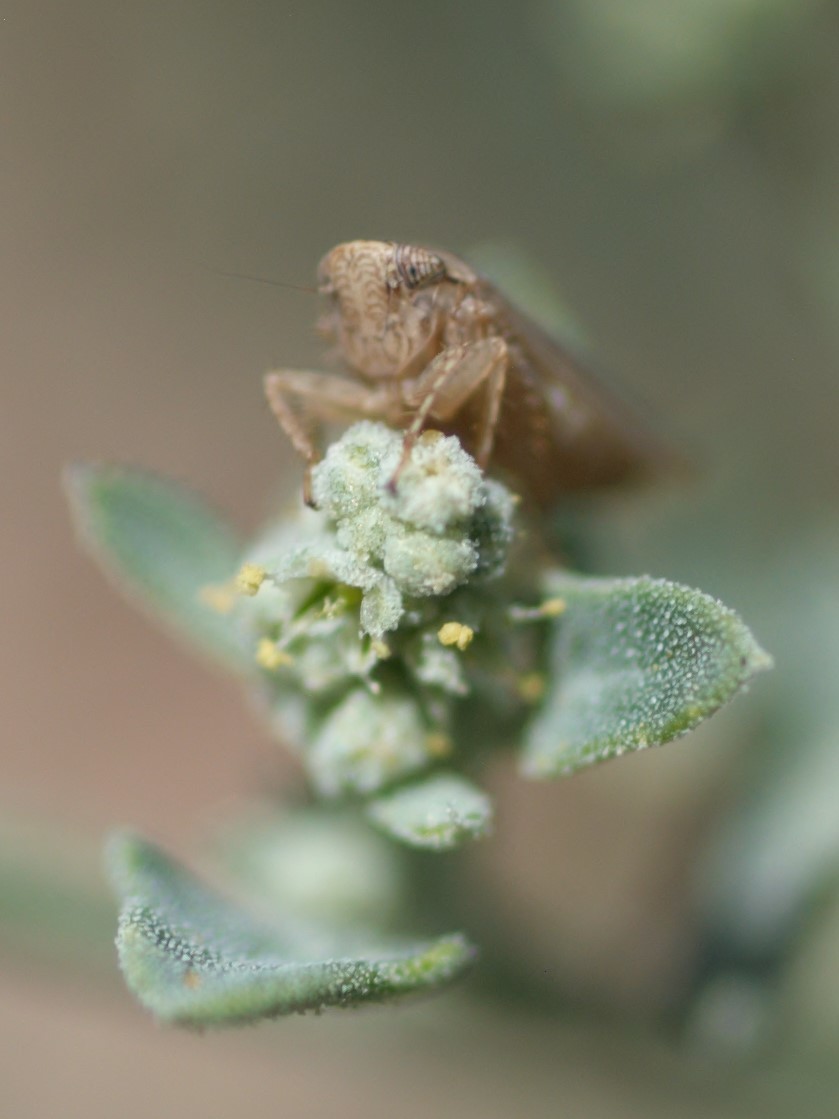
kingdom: Animalia
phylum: Arthropoda
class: Insecta
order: Hemiptera
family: Cicadellidae
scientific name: Cicadellidae
